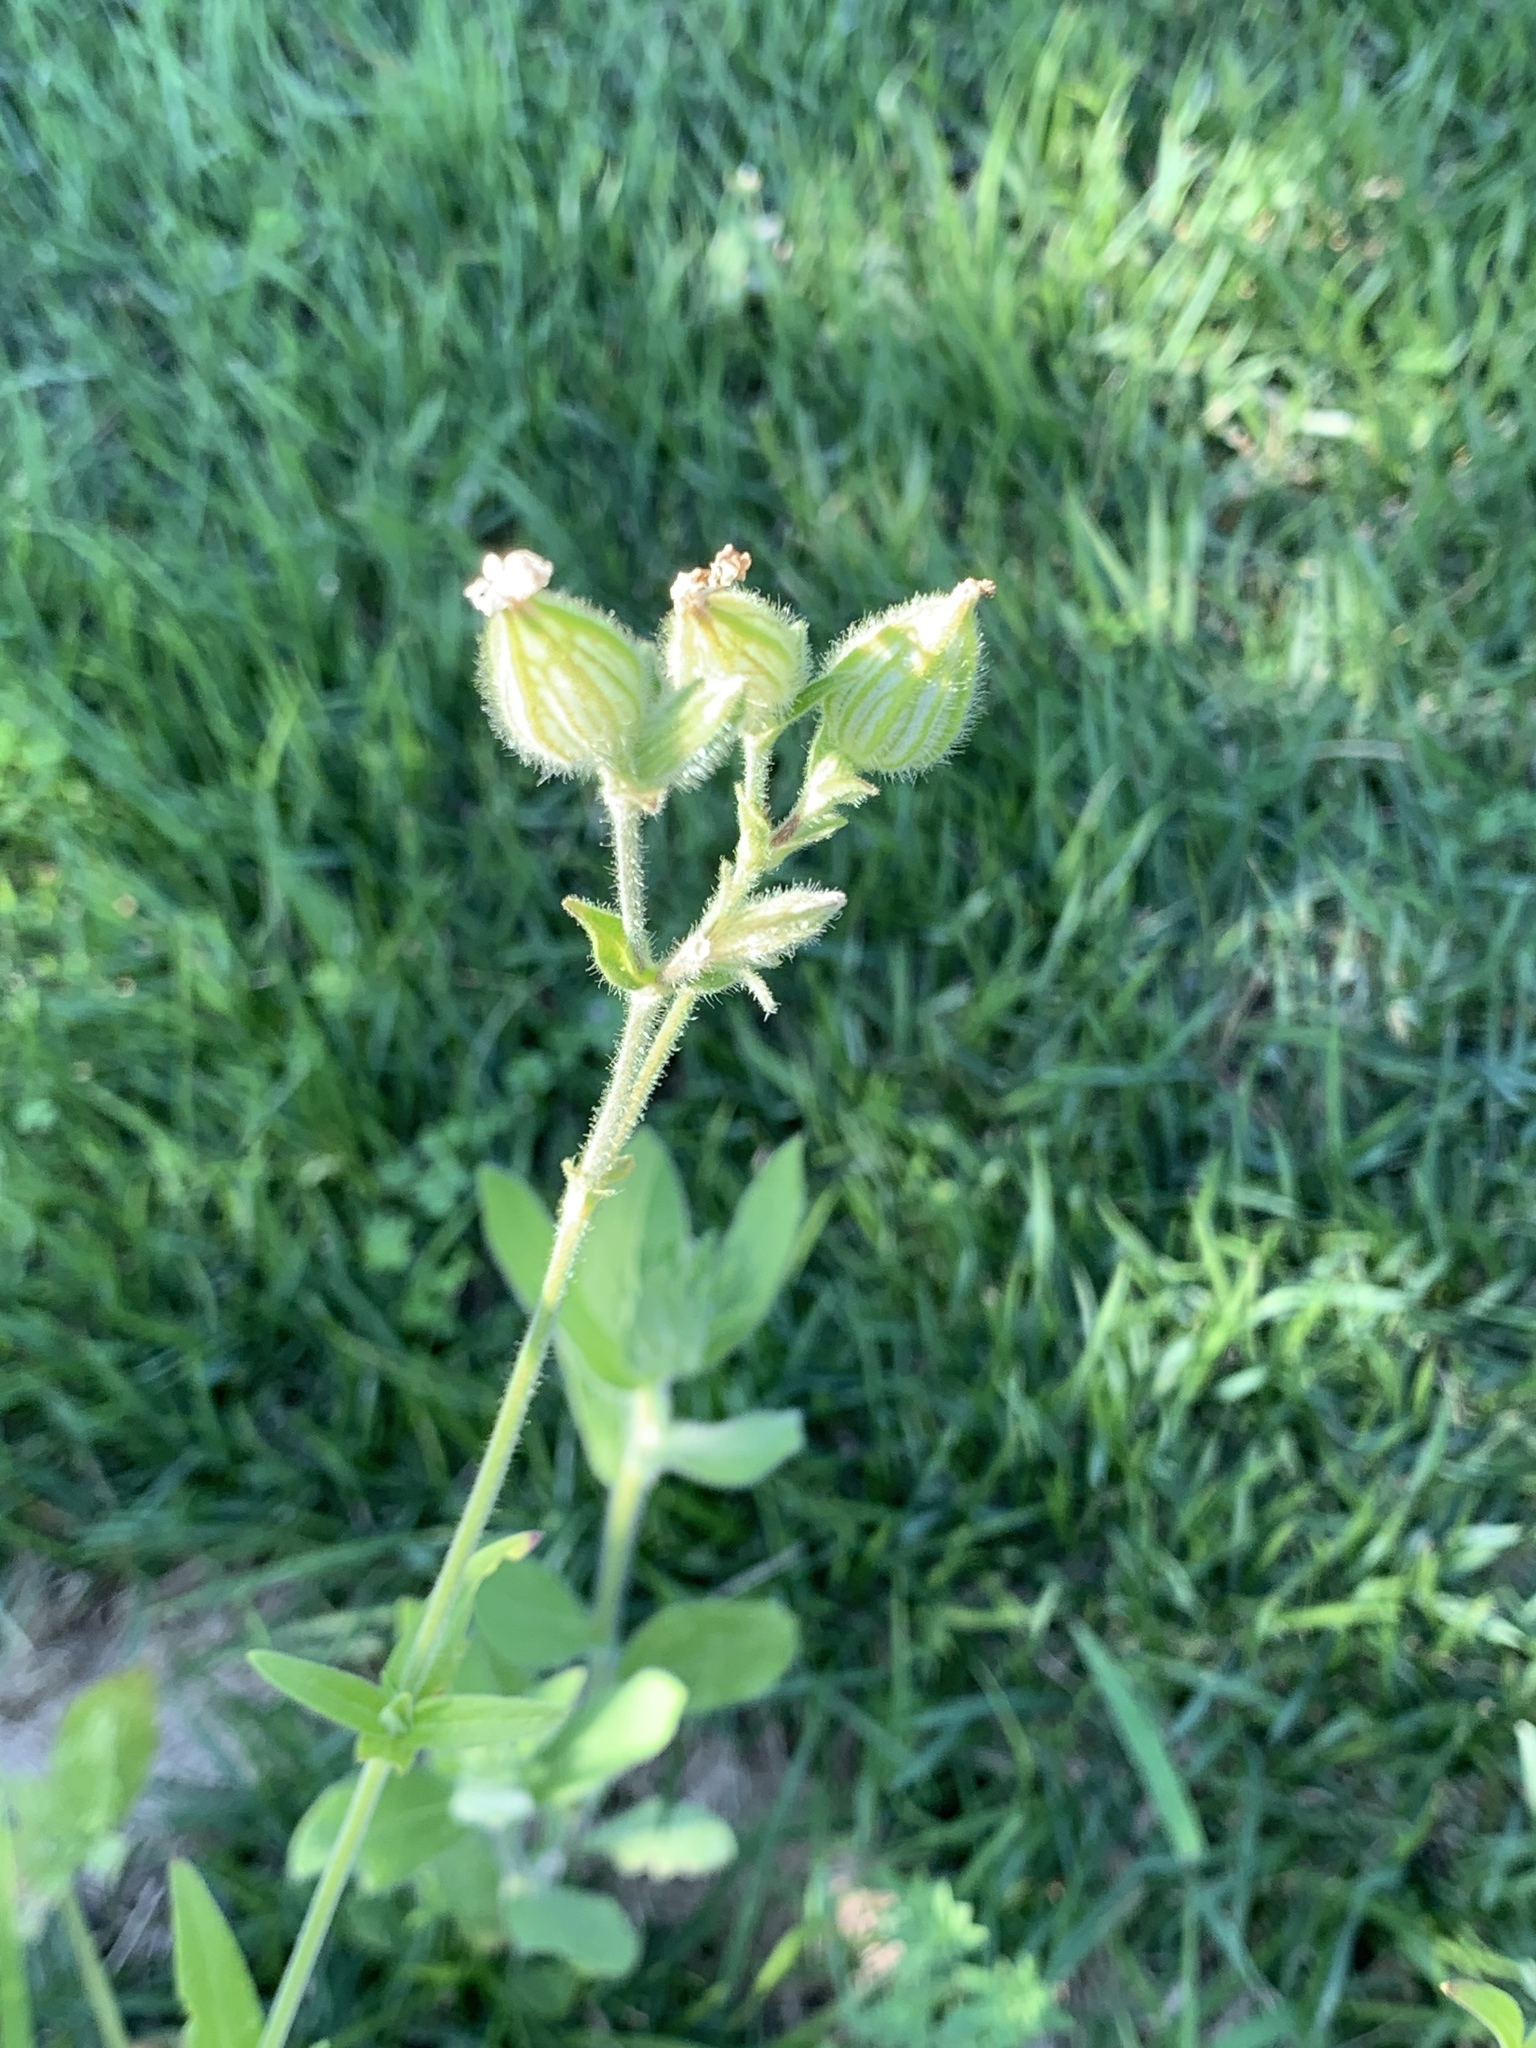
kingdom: Plantae
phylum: Tracheophyta
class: Magnoliopsida
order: Caryophyllales
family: Caryophyllaceae
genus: Silene
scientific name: Silene latifolia
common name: White campion
